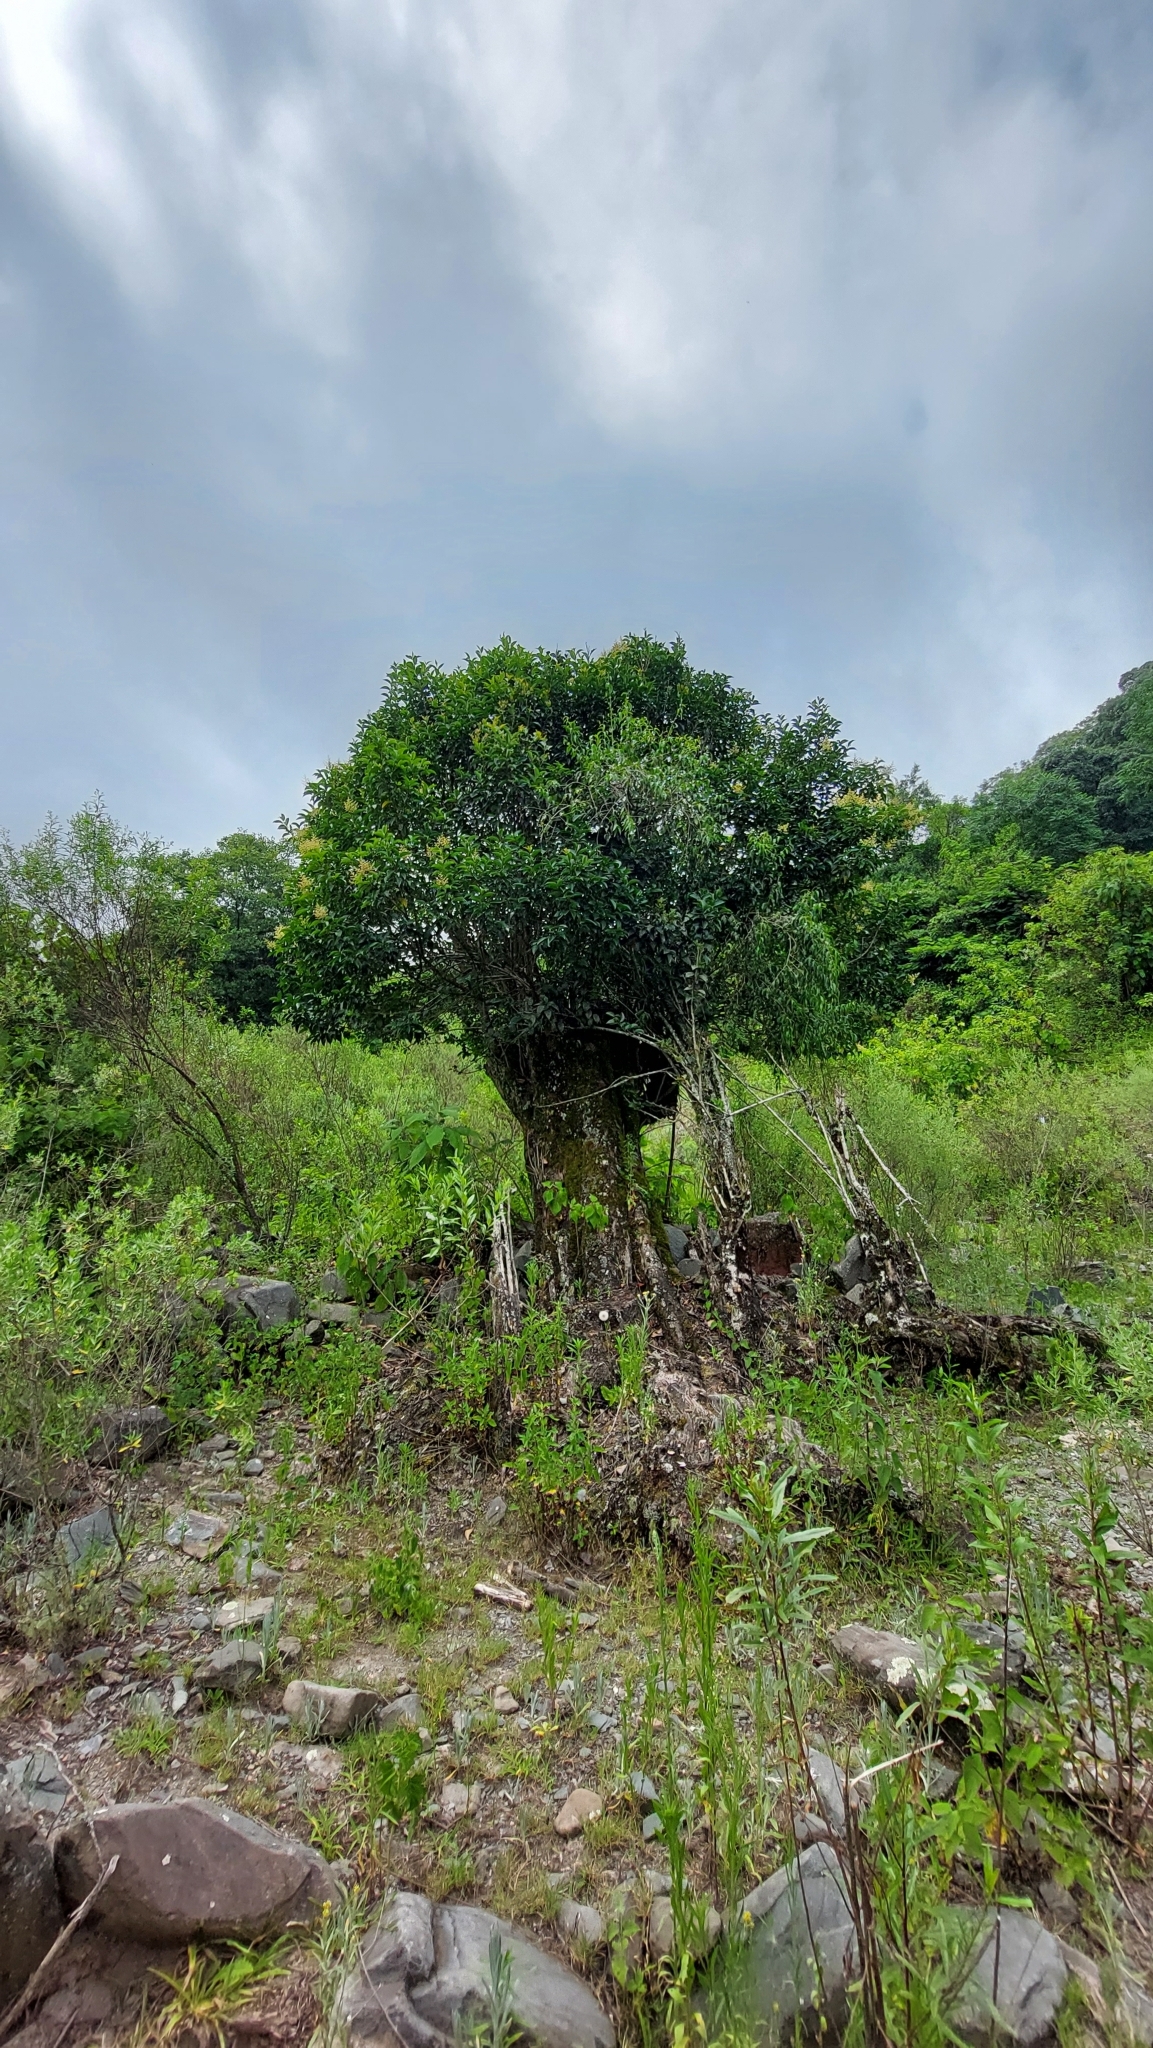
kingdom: Plantae
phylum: Tracheophyta
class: Magnoliopsida
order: Lamiales
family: Oleaceae
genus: Ligustrum
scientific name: Ligustrum lucidum
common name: Glossy privet
